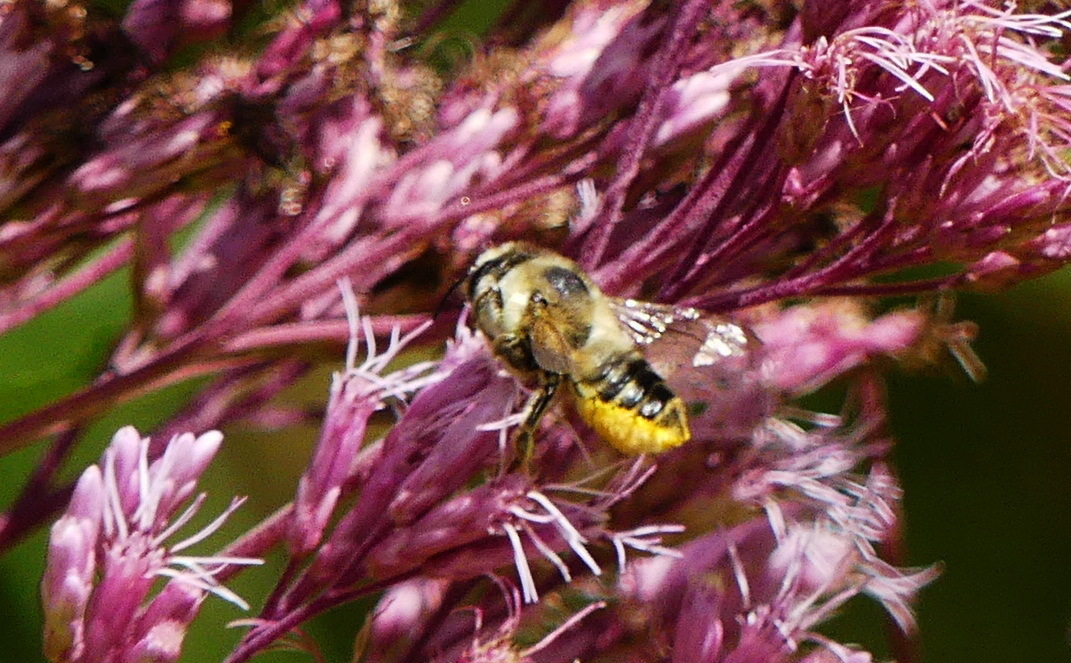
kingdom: Animalia
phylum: Arthropoda
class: Insecta
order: Hymenoptera
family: Megachilidae
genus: Megachile
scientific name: Megachile latimanus
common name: Leafcutting bee
